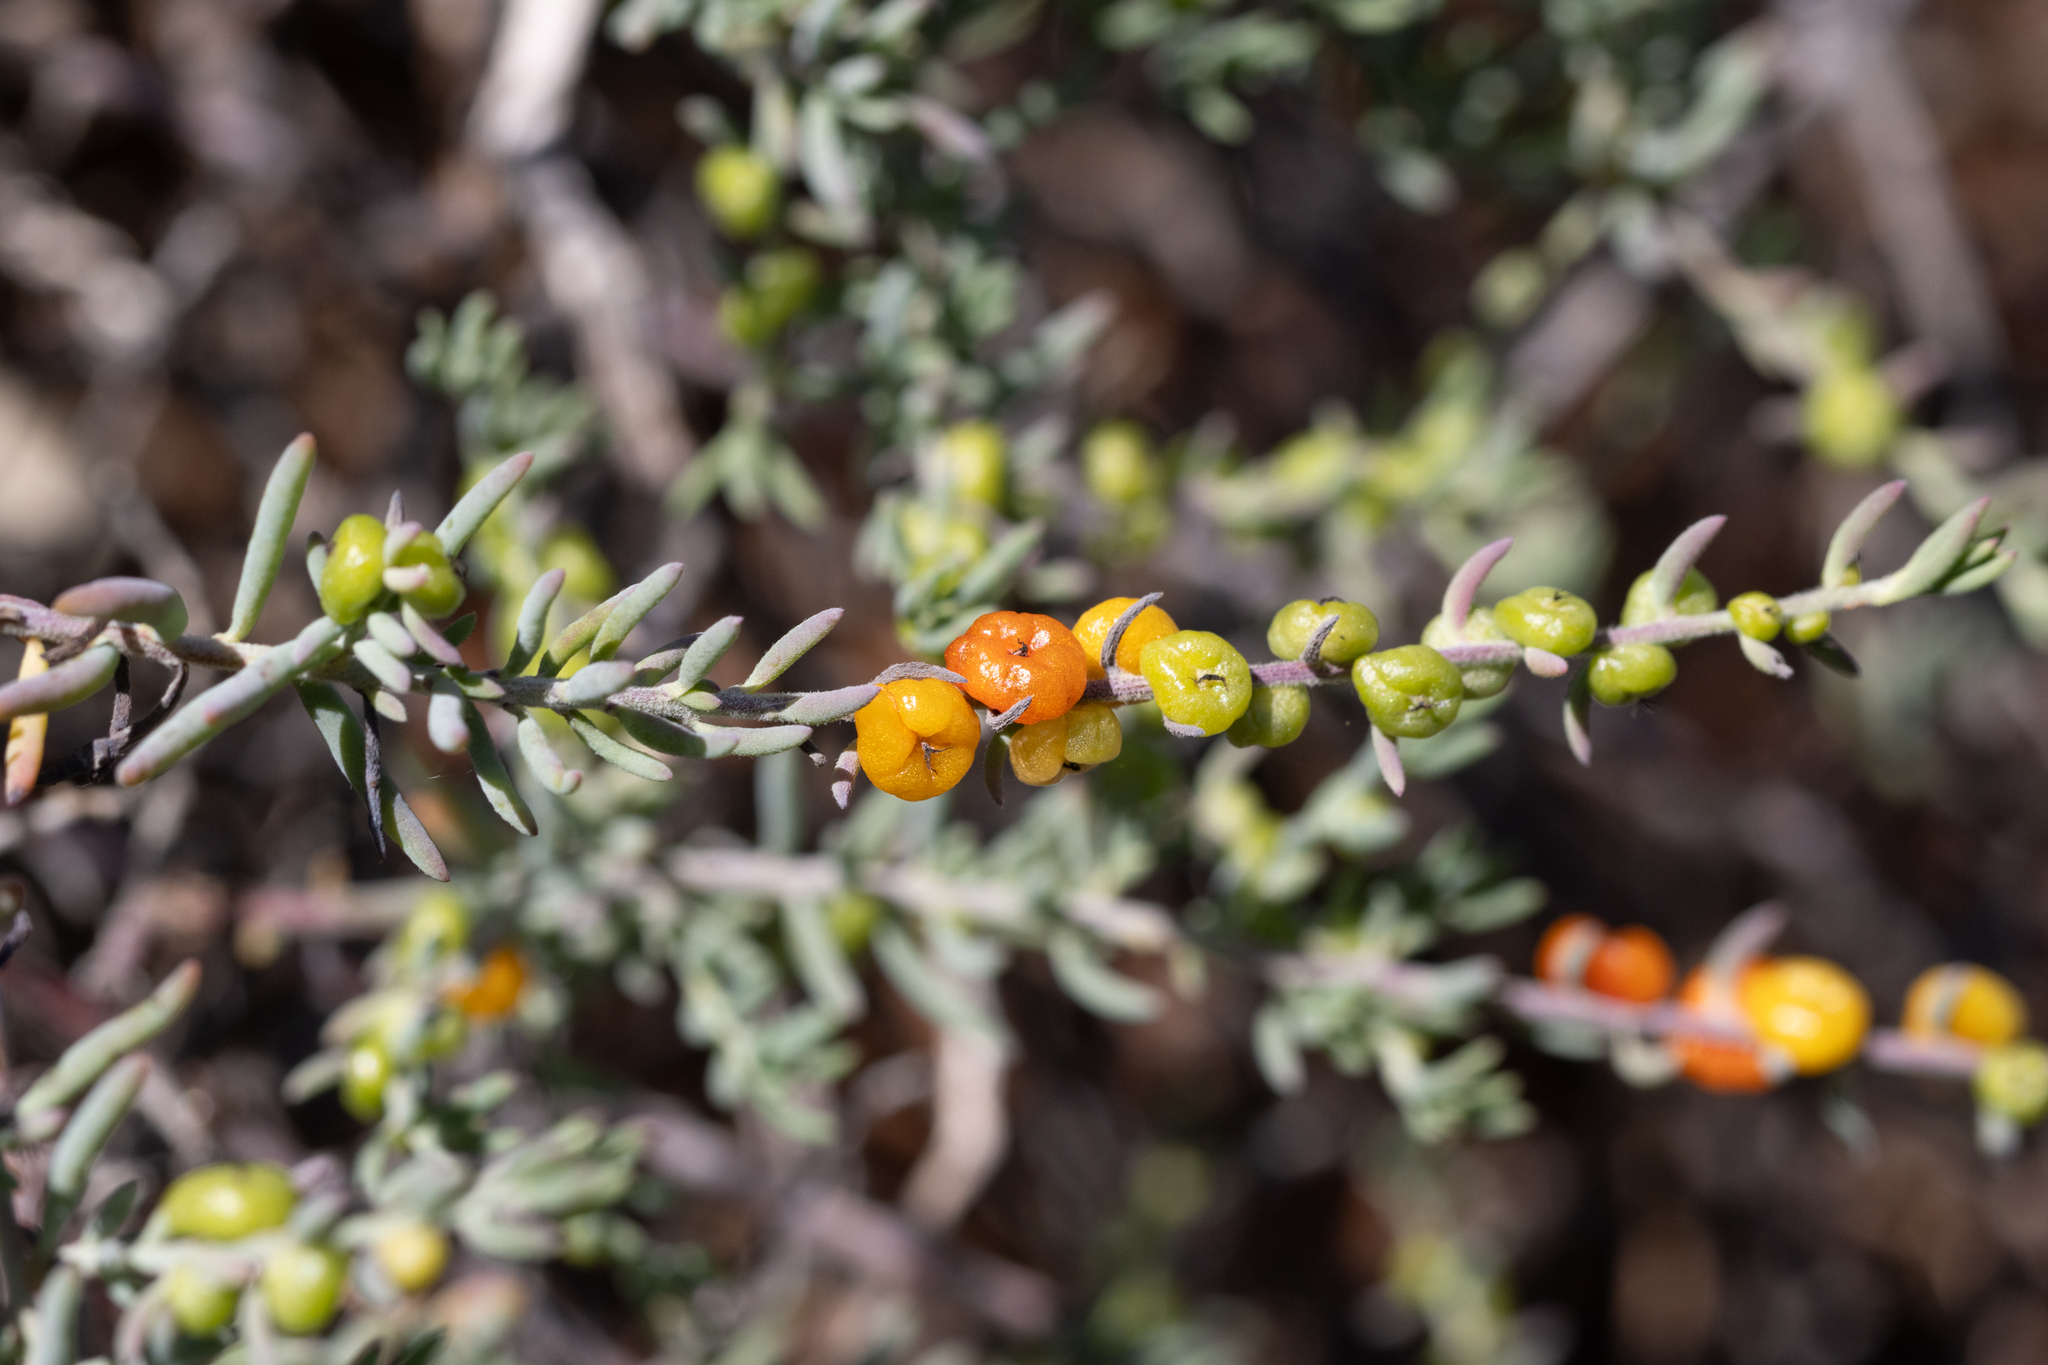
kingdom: Plantae
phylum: Tracheophyta
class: Magnoliopsida
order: Caryophyllales
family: Amaranthaceae
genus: Enchylaena
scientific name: Enchylaena tomentosa
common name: Ruby saltbush
